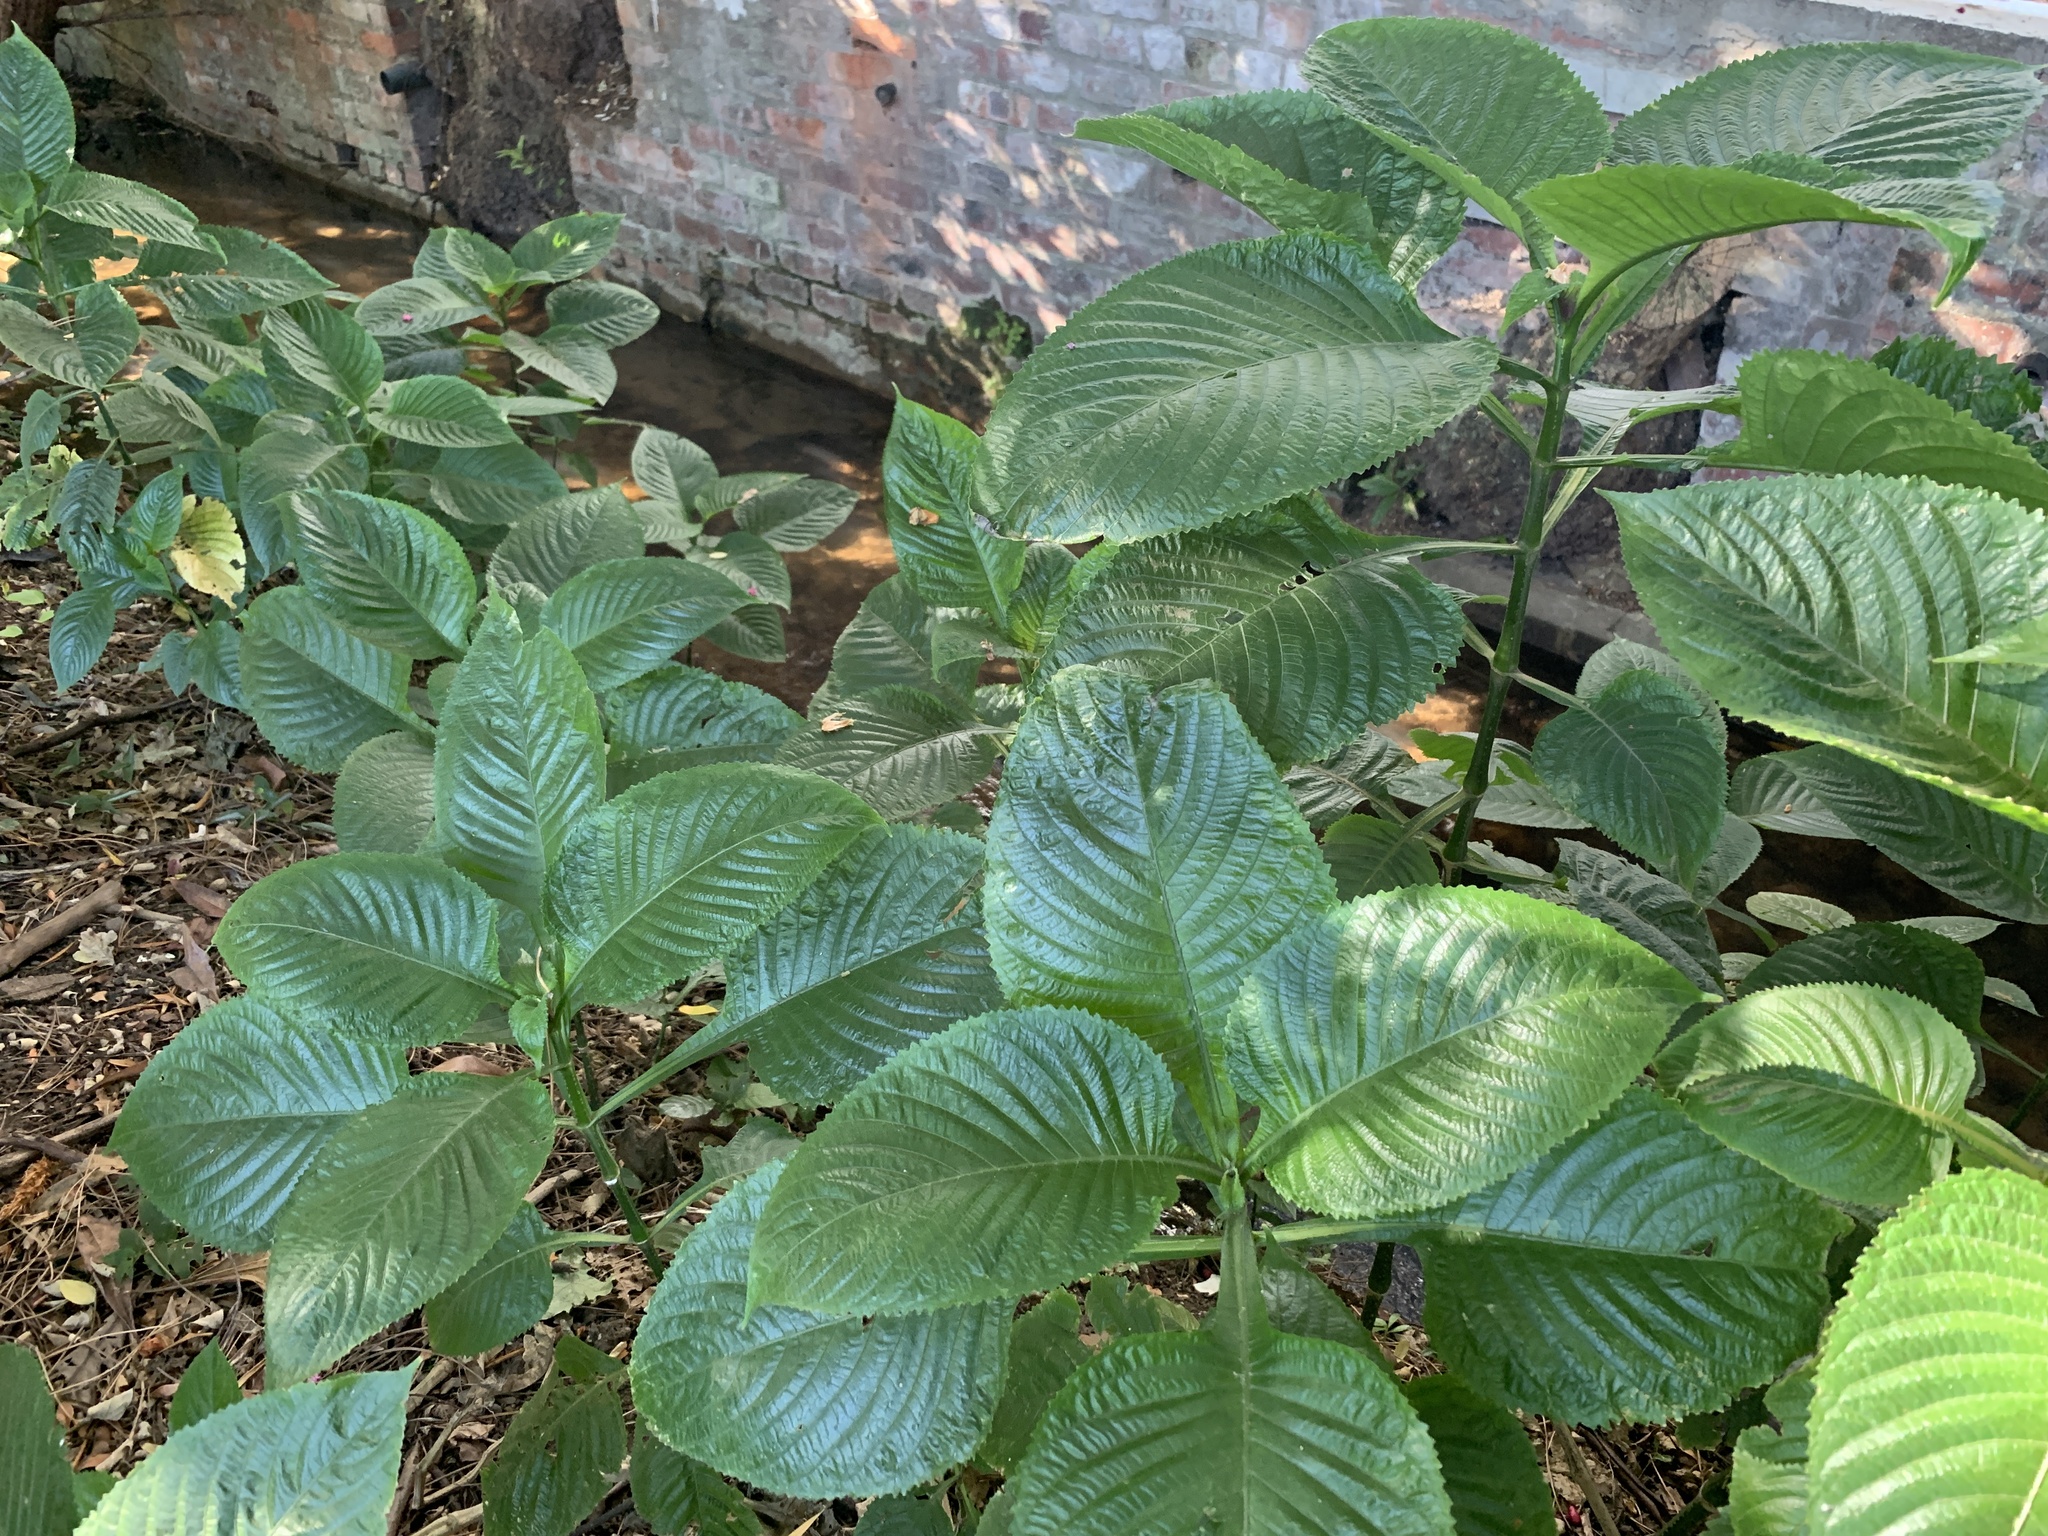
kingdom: Plantae
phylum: Tracheophyta
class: Magnoliopsida
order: Lamiales
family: Acanthaceae
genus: Brillantaisia
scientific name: Brillantaisia owariensis
